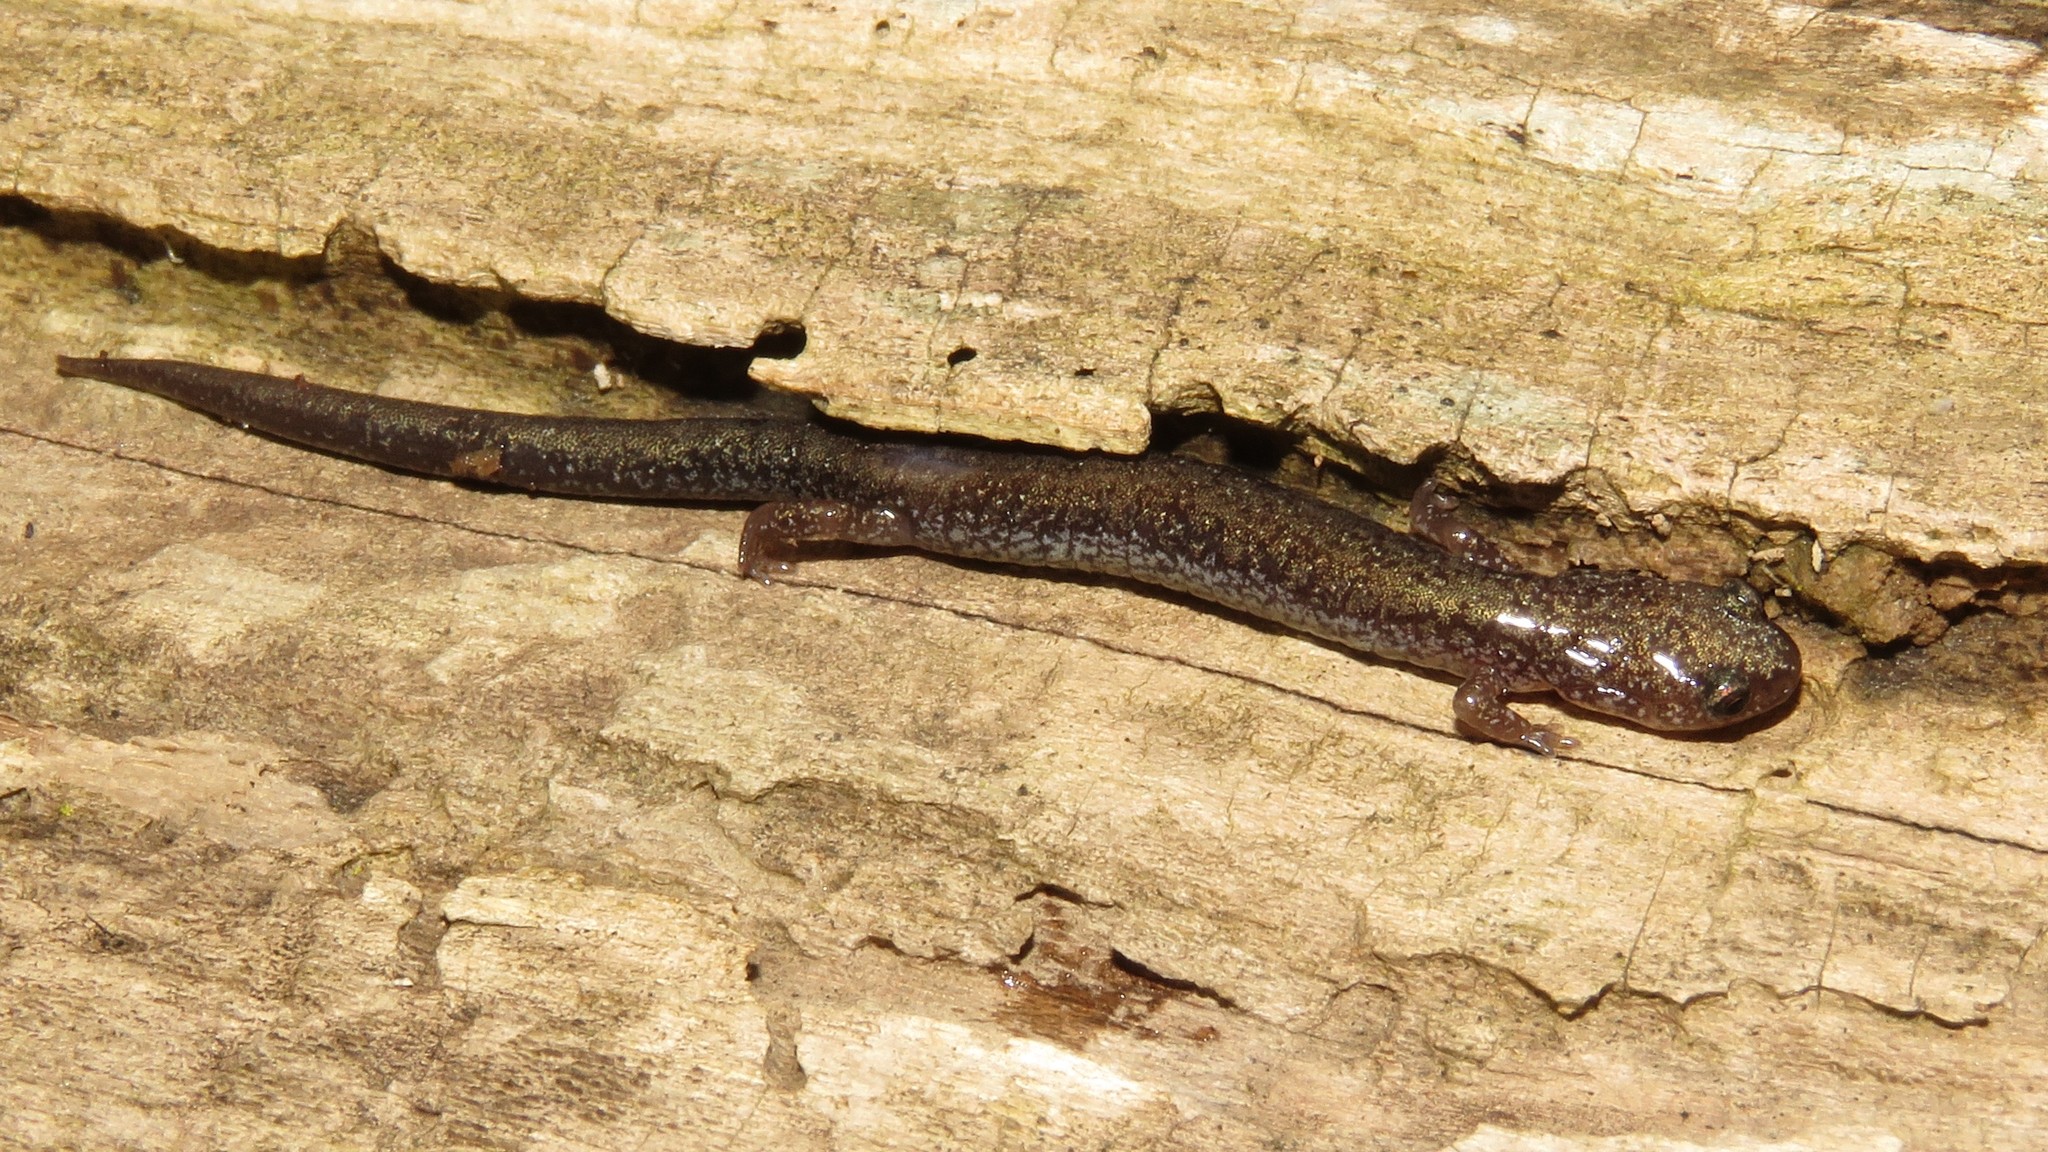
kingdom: Animalia
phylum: Chordata
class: Amphibia
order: Caudata
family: Plethodontidae
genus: Plethodon
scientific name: Plethodon cinereus
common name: Redback salamander
